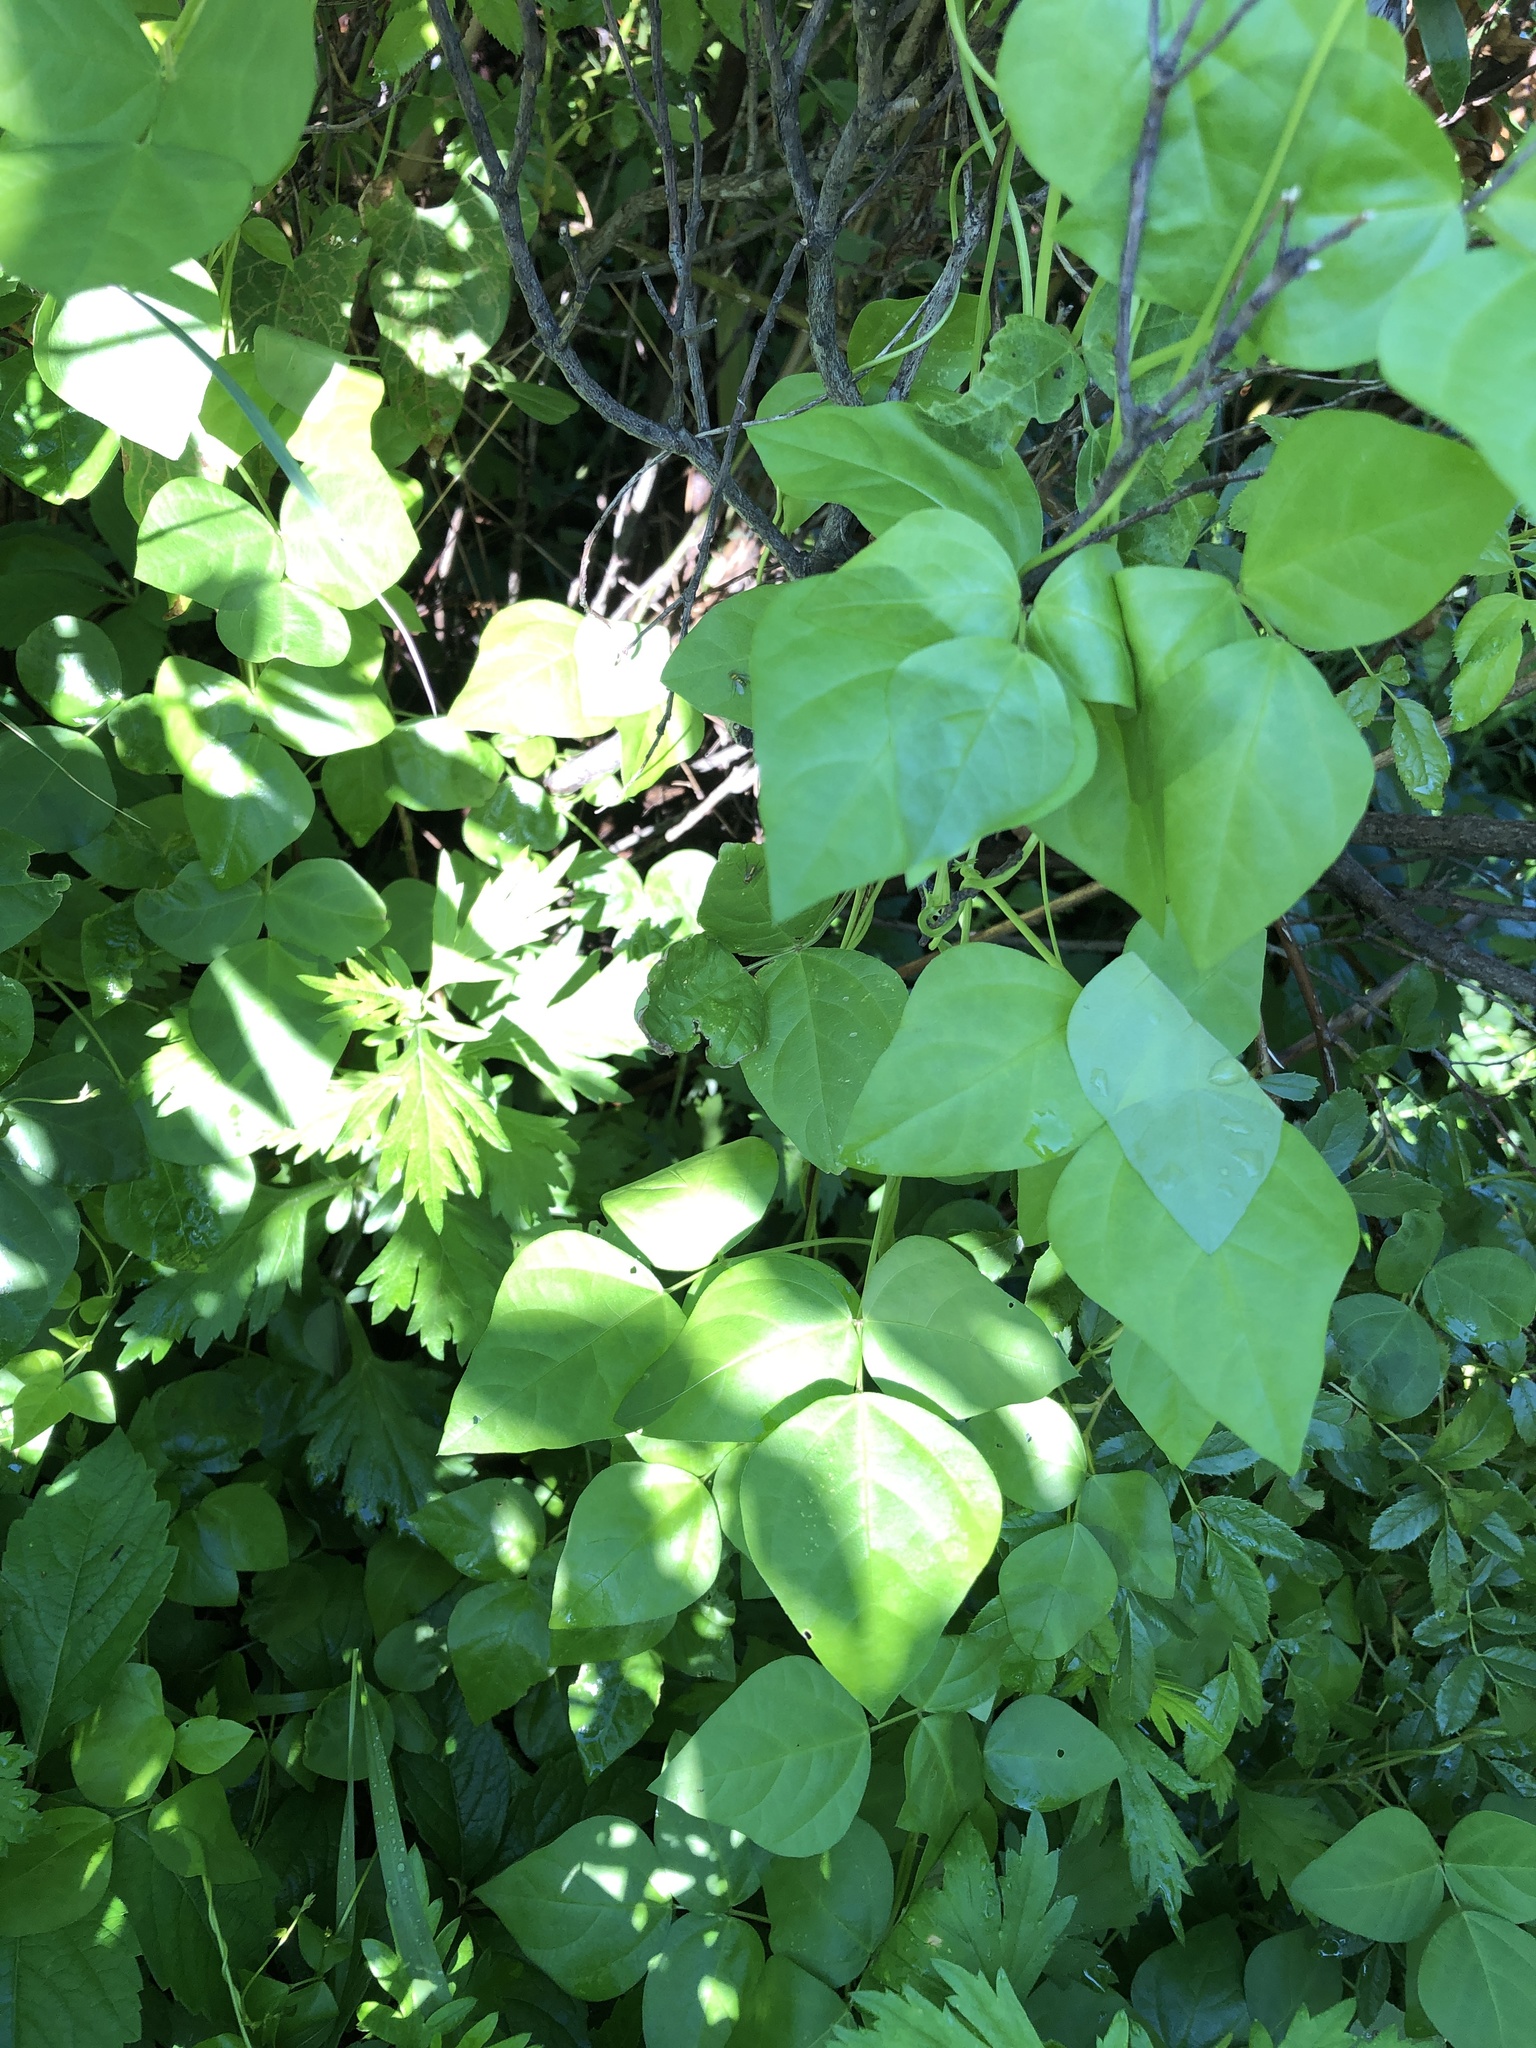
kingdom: Plantae
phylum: Tracheophyta
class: Magnoliopsida
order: Fabales
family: Fabaceae
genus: Amphicarpaea
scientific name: Amphicarpaea bracteata
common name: American hog peanut
